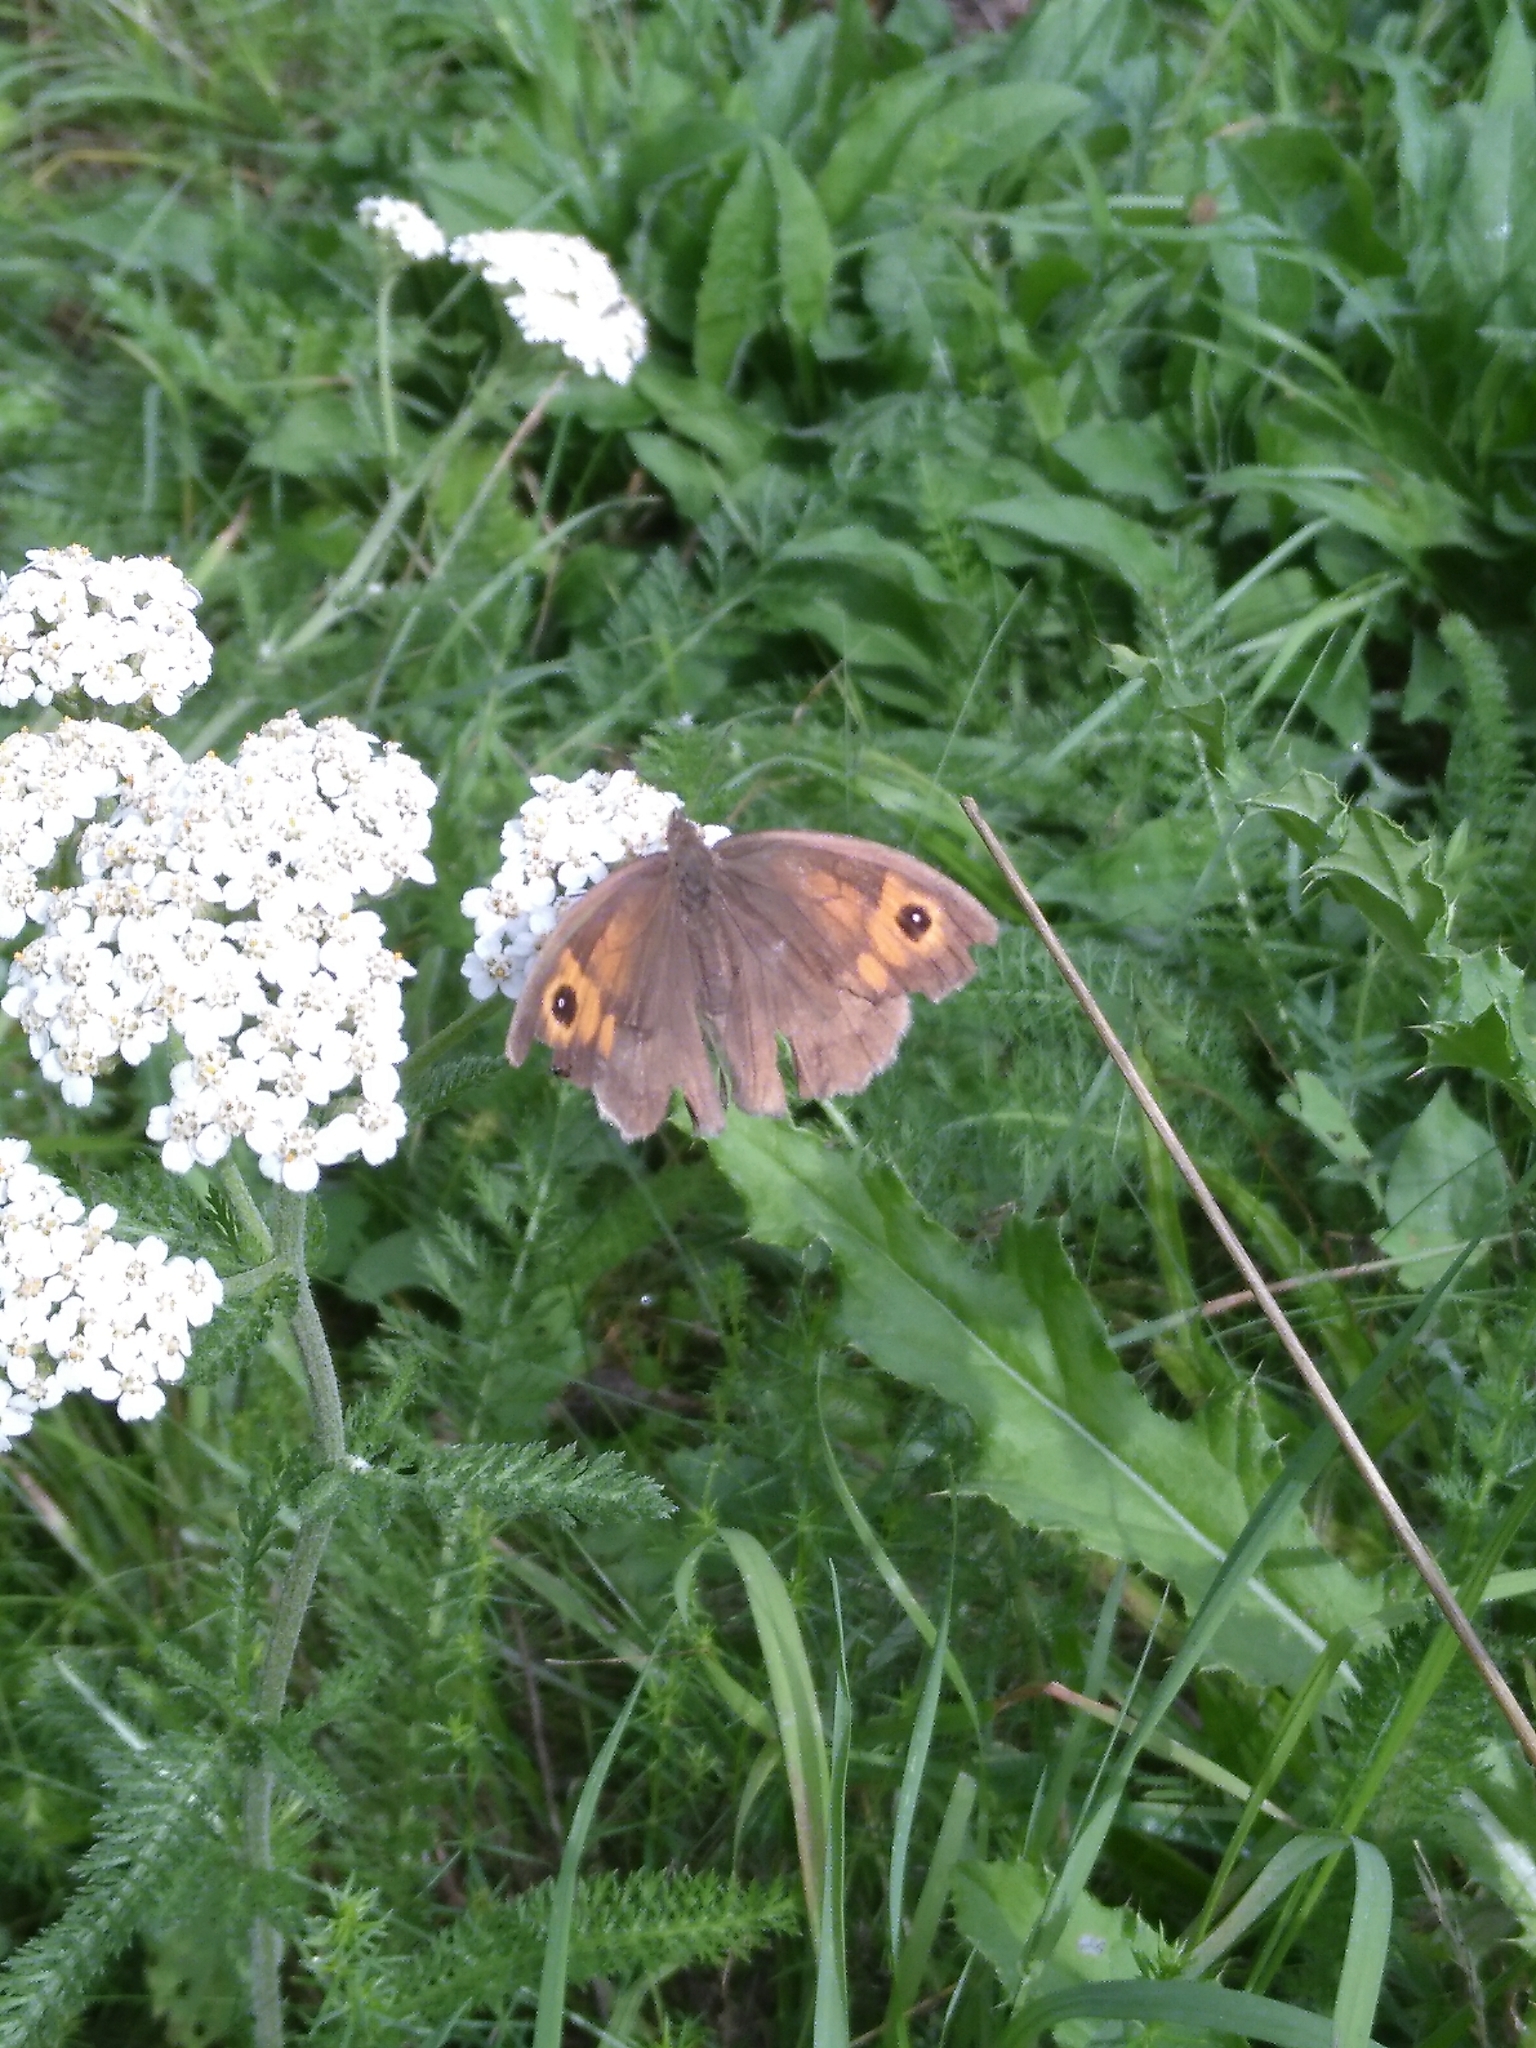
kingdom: Animalia
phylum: Arthropoda
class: Insecta
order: Lepidoptera
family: Nymphalidae
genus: Maniola
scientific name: Maniola jurtina
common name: Meadow brown
